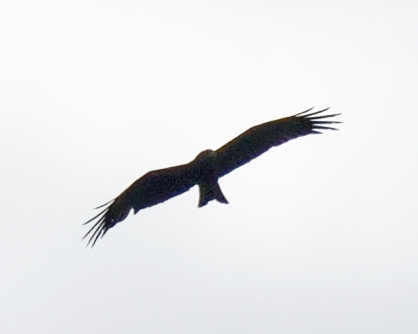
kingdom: Animalia
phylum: Chordata
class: Aves
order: Accipitriformes
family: Accipitridae
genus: Milvus
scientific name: Milvus migrans
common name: Black kite
